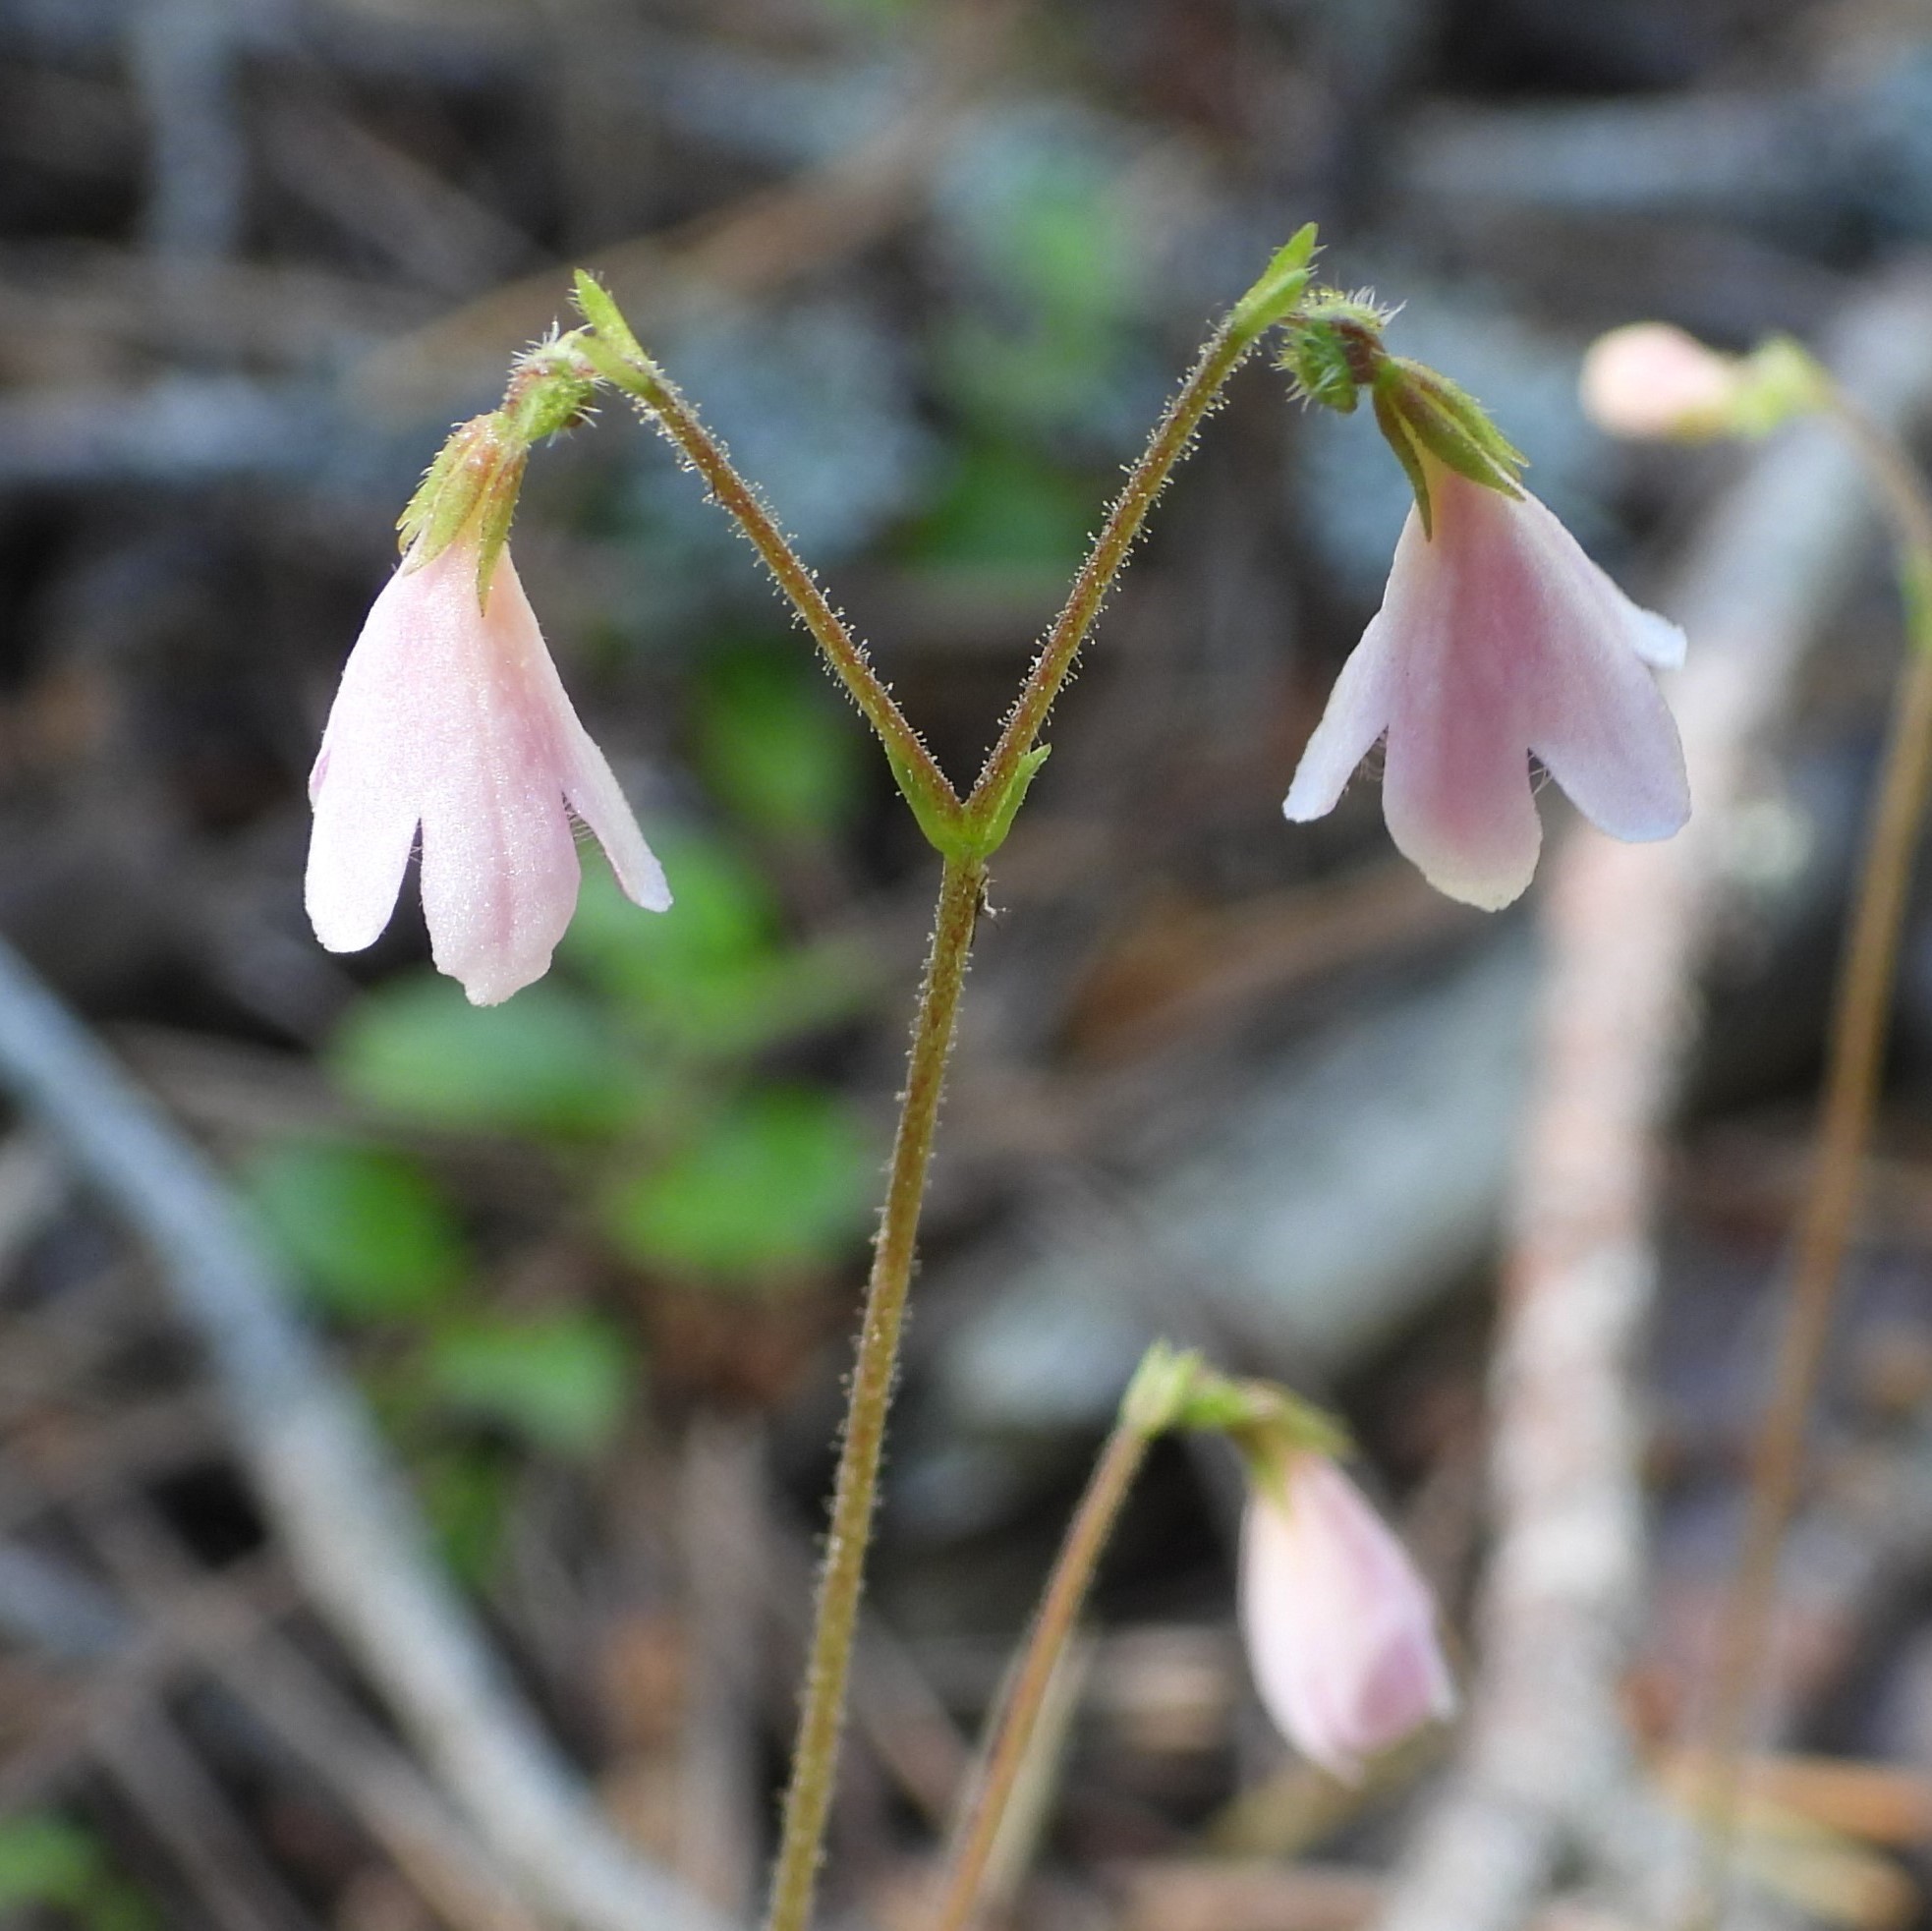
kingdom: Plantae
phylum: Tracheophyta
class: Magnoliopsida
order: Dipsacales
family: Caprifoliaceae
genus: Linnaea
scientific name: Linnaea borealis
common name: Twinflower
